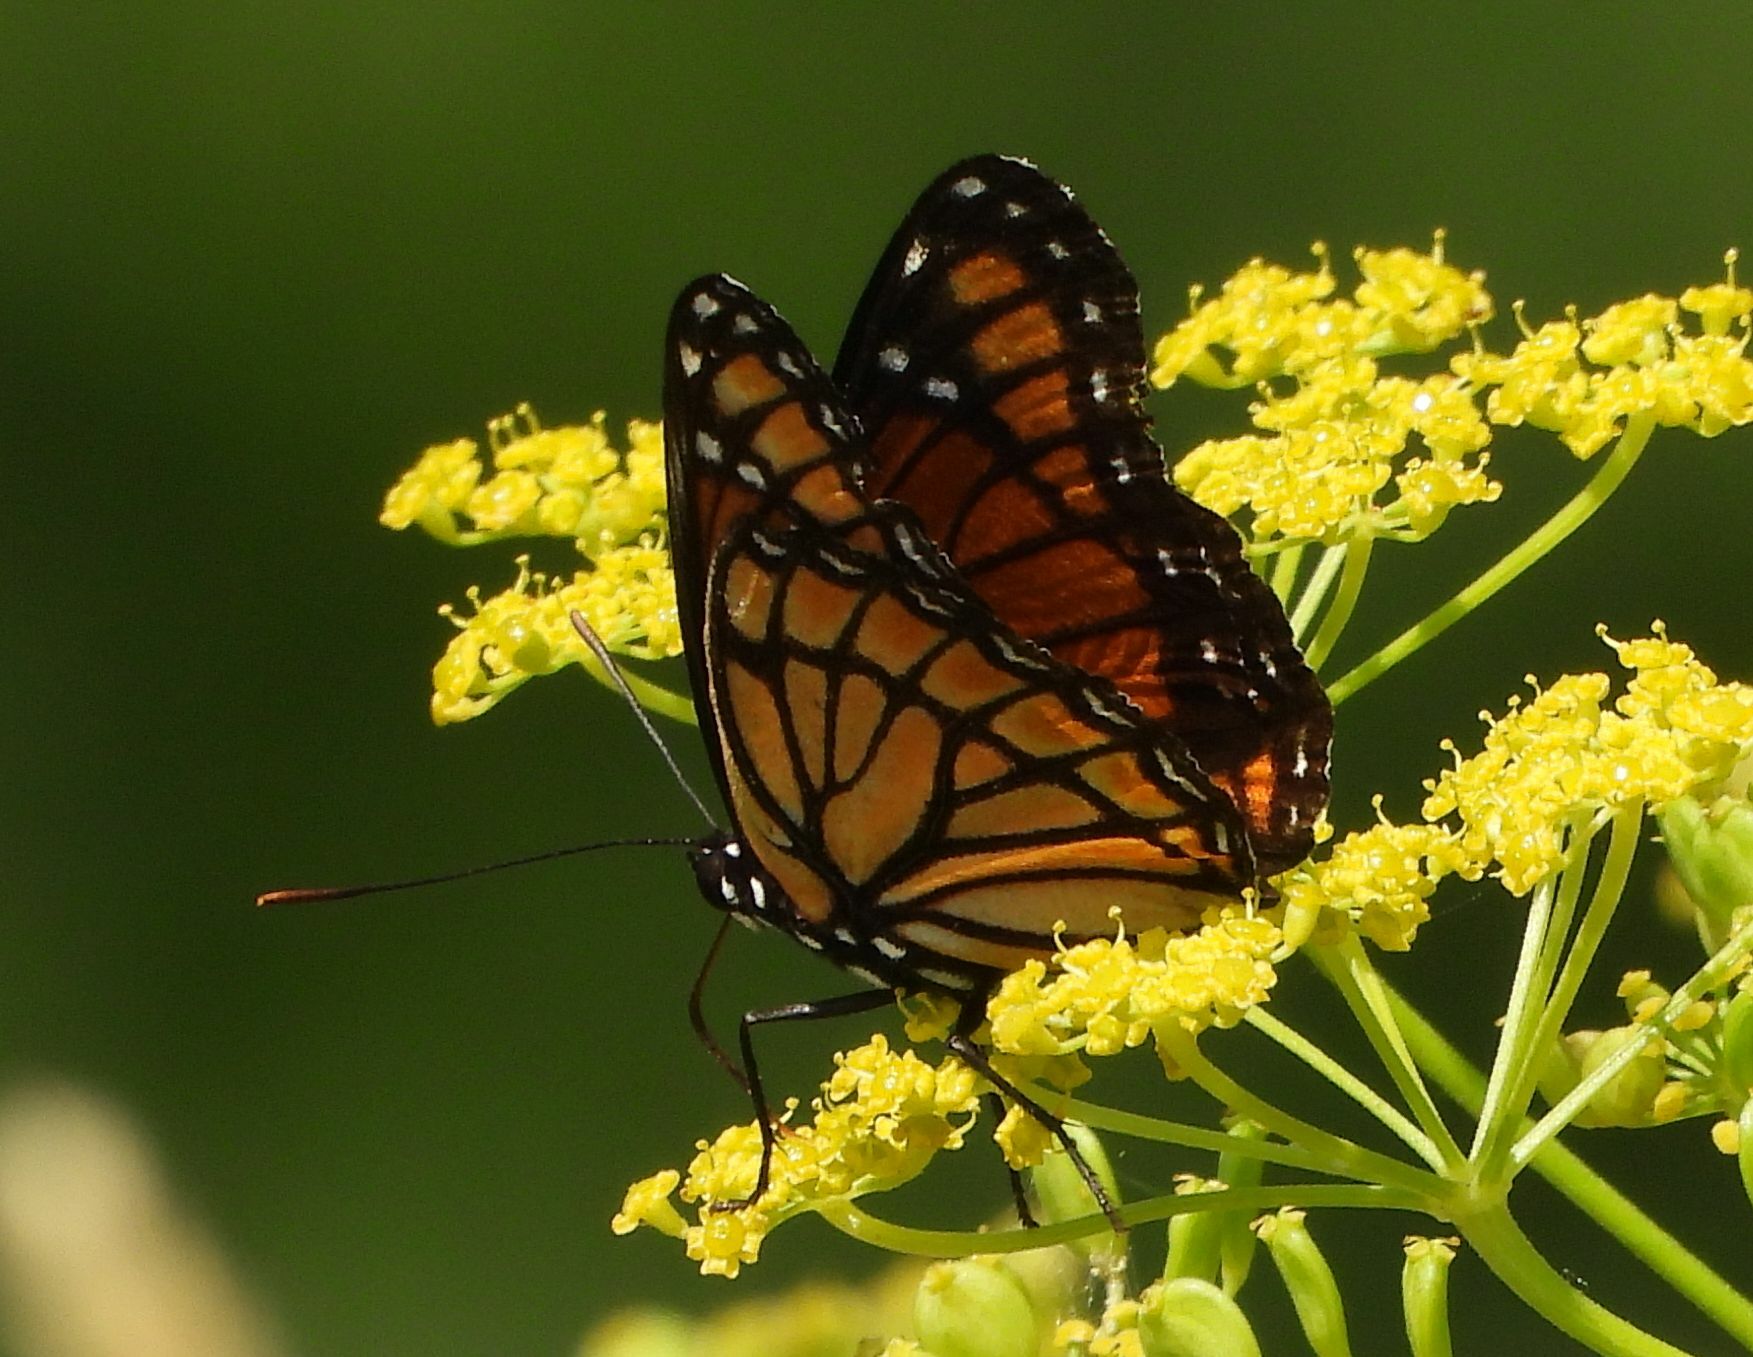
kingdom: Animalia
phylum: Arthropoda
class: Insecta
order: Lepidoptera
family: Nymphalidae
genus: Limenitis
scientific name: Limenitis archippus
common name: Viceroy
